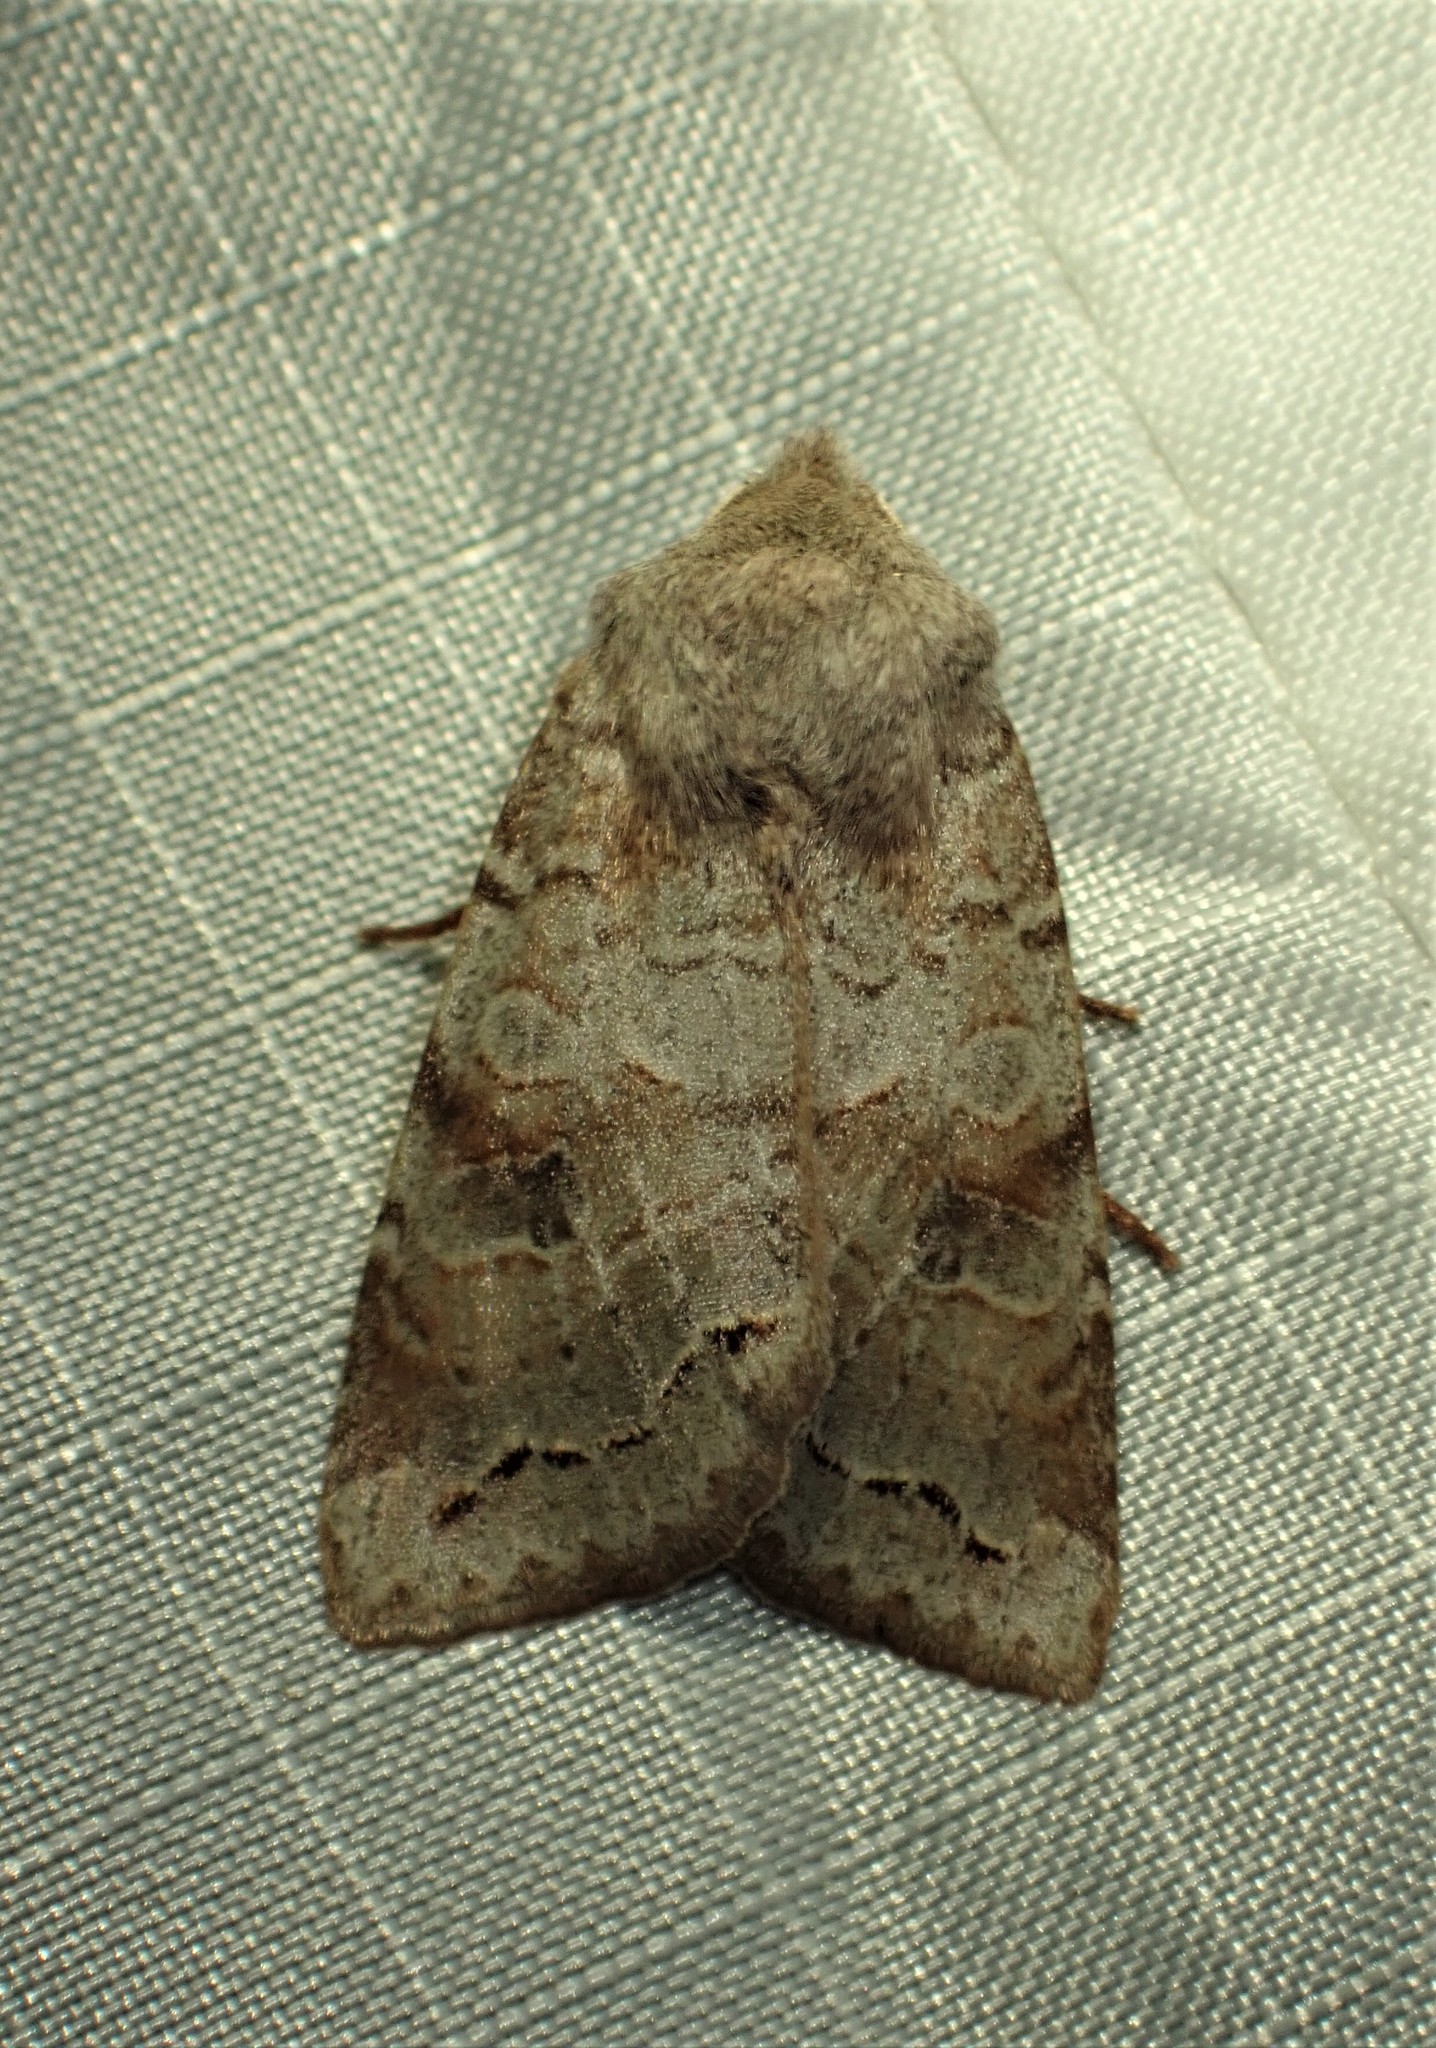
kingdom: Animalia
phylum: Arthropoda
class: Insecta
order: Lepidoptera
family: Noctuidae
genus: Orthosia
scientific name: Orthosia revicta
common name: Rusty whitesided caterpillar
